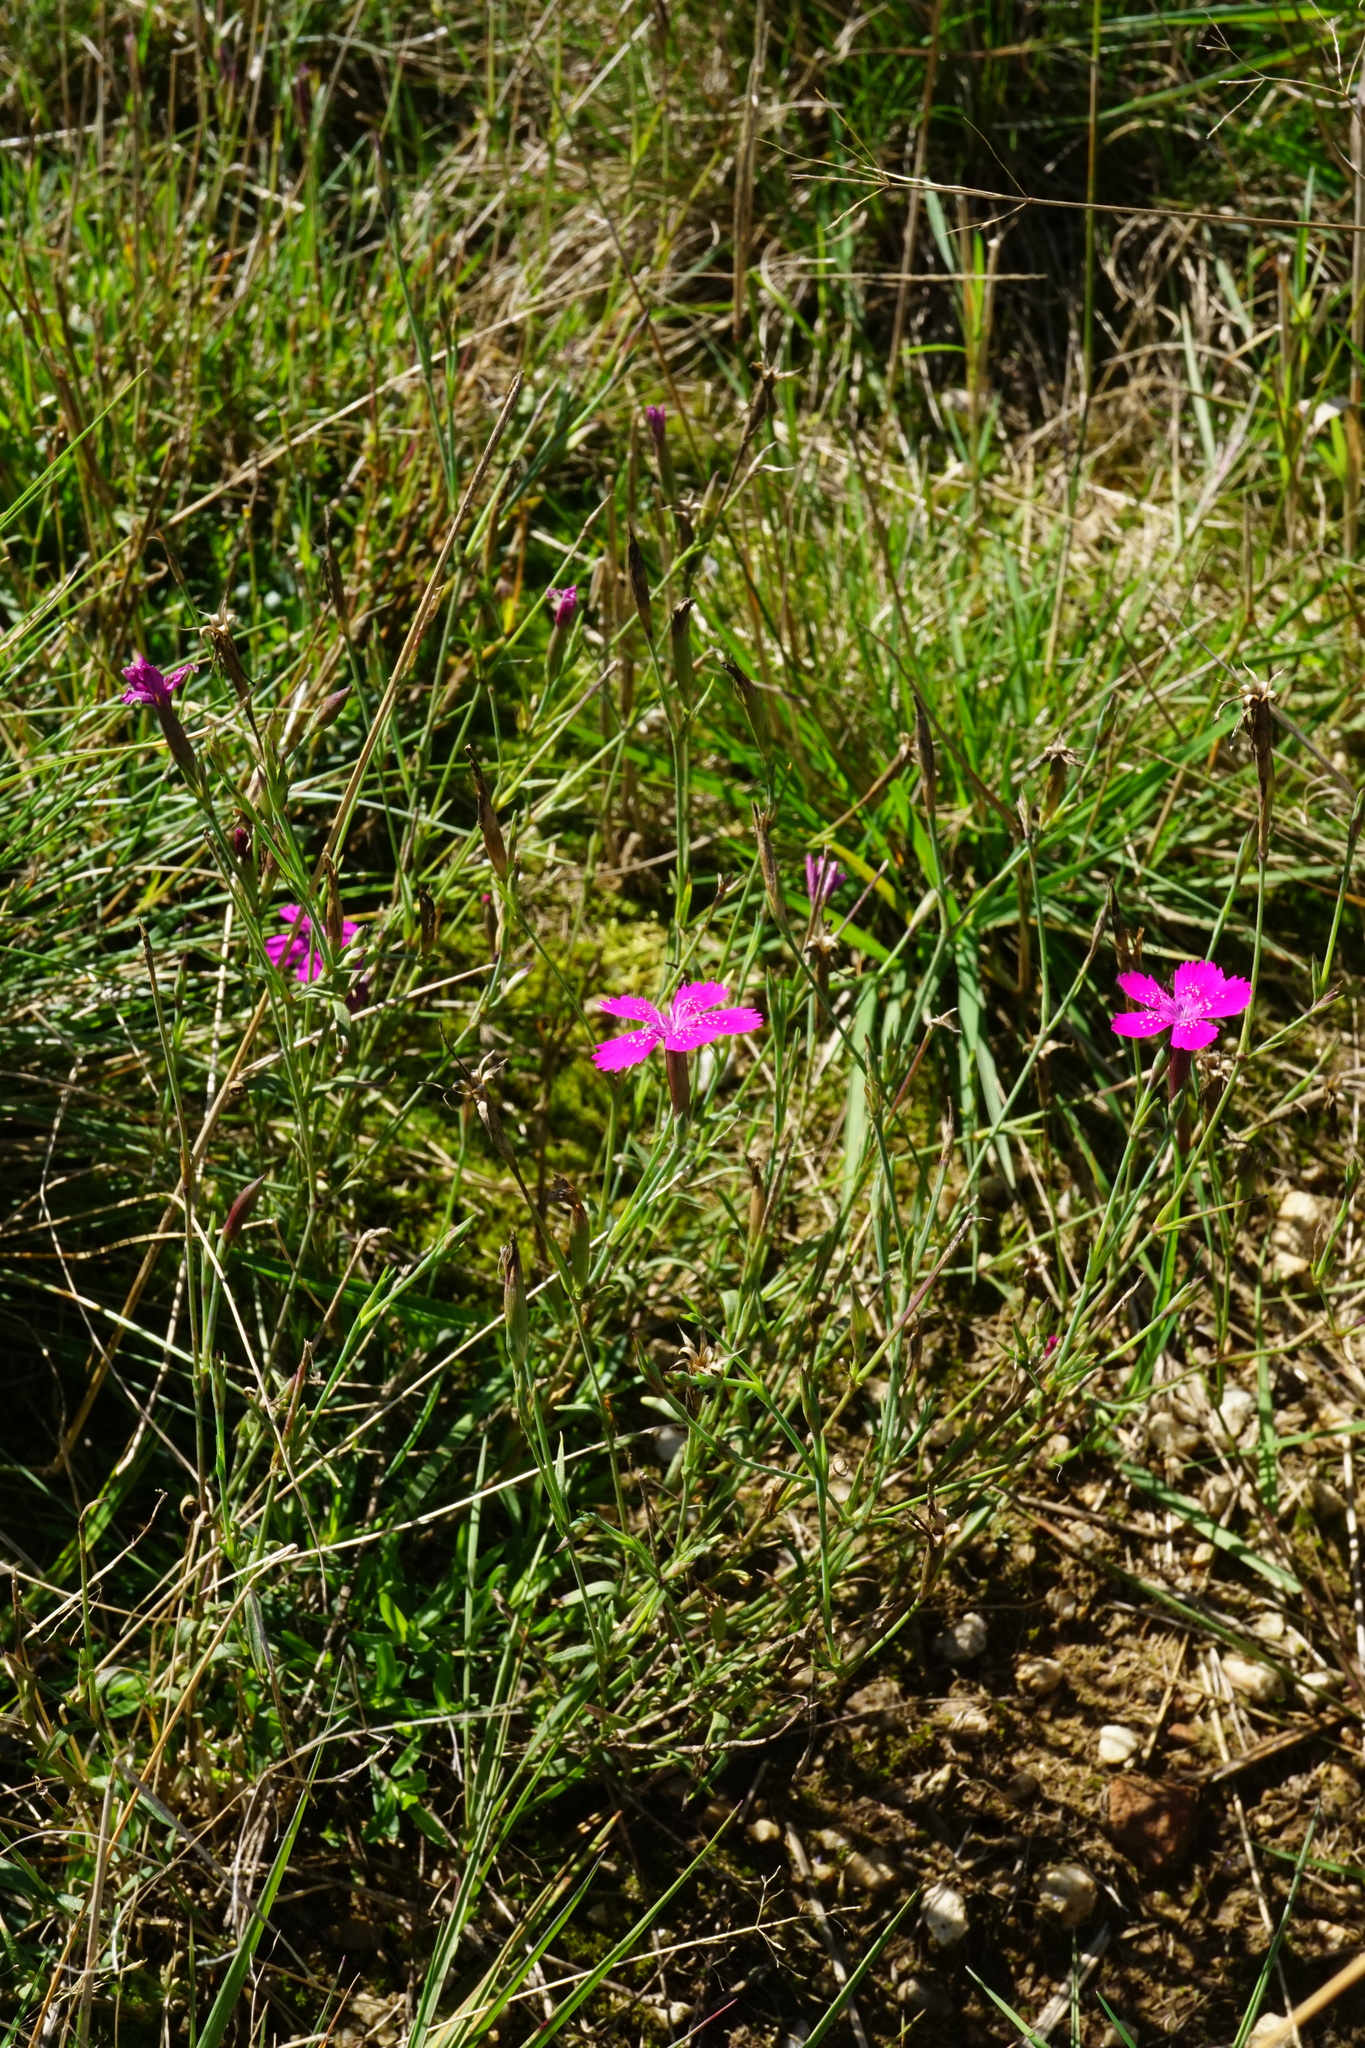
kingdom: Plantae
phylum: Tracheophyta
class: Magnoliopsida
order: Caryophyllales
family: Caryophyllaceae
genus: Dianthus
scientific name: Dianthus deltoides
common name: Maiden pink
